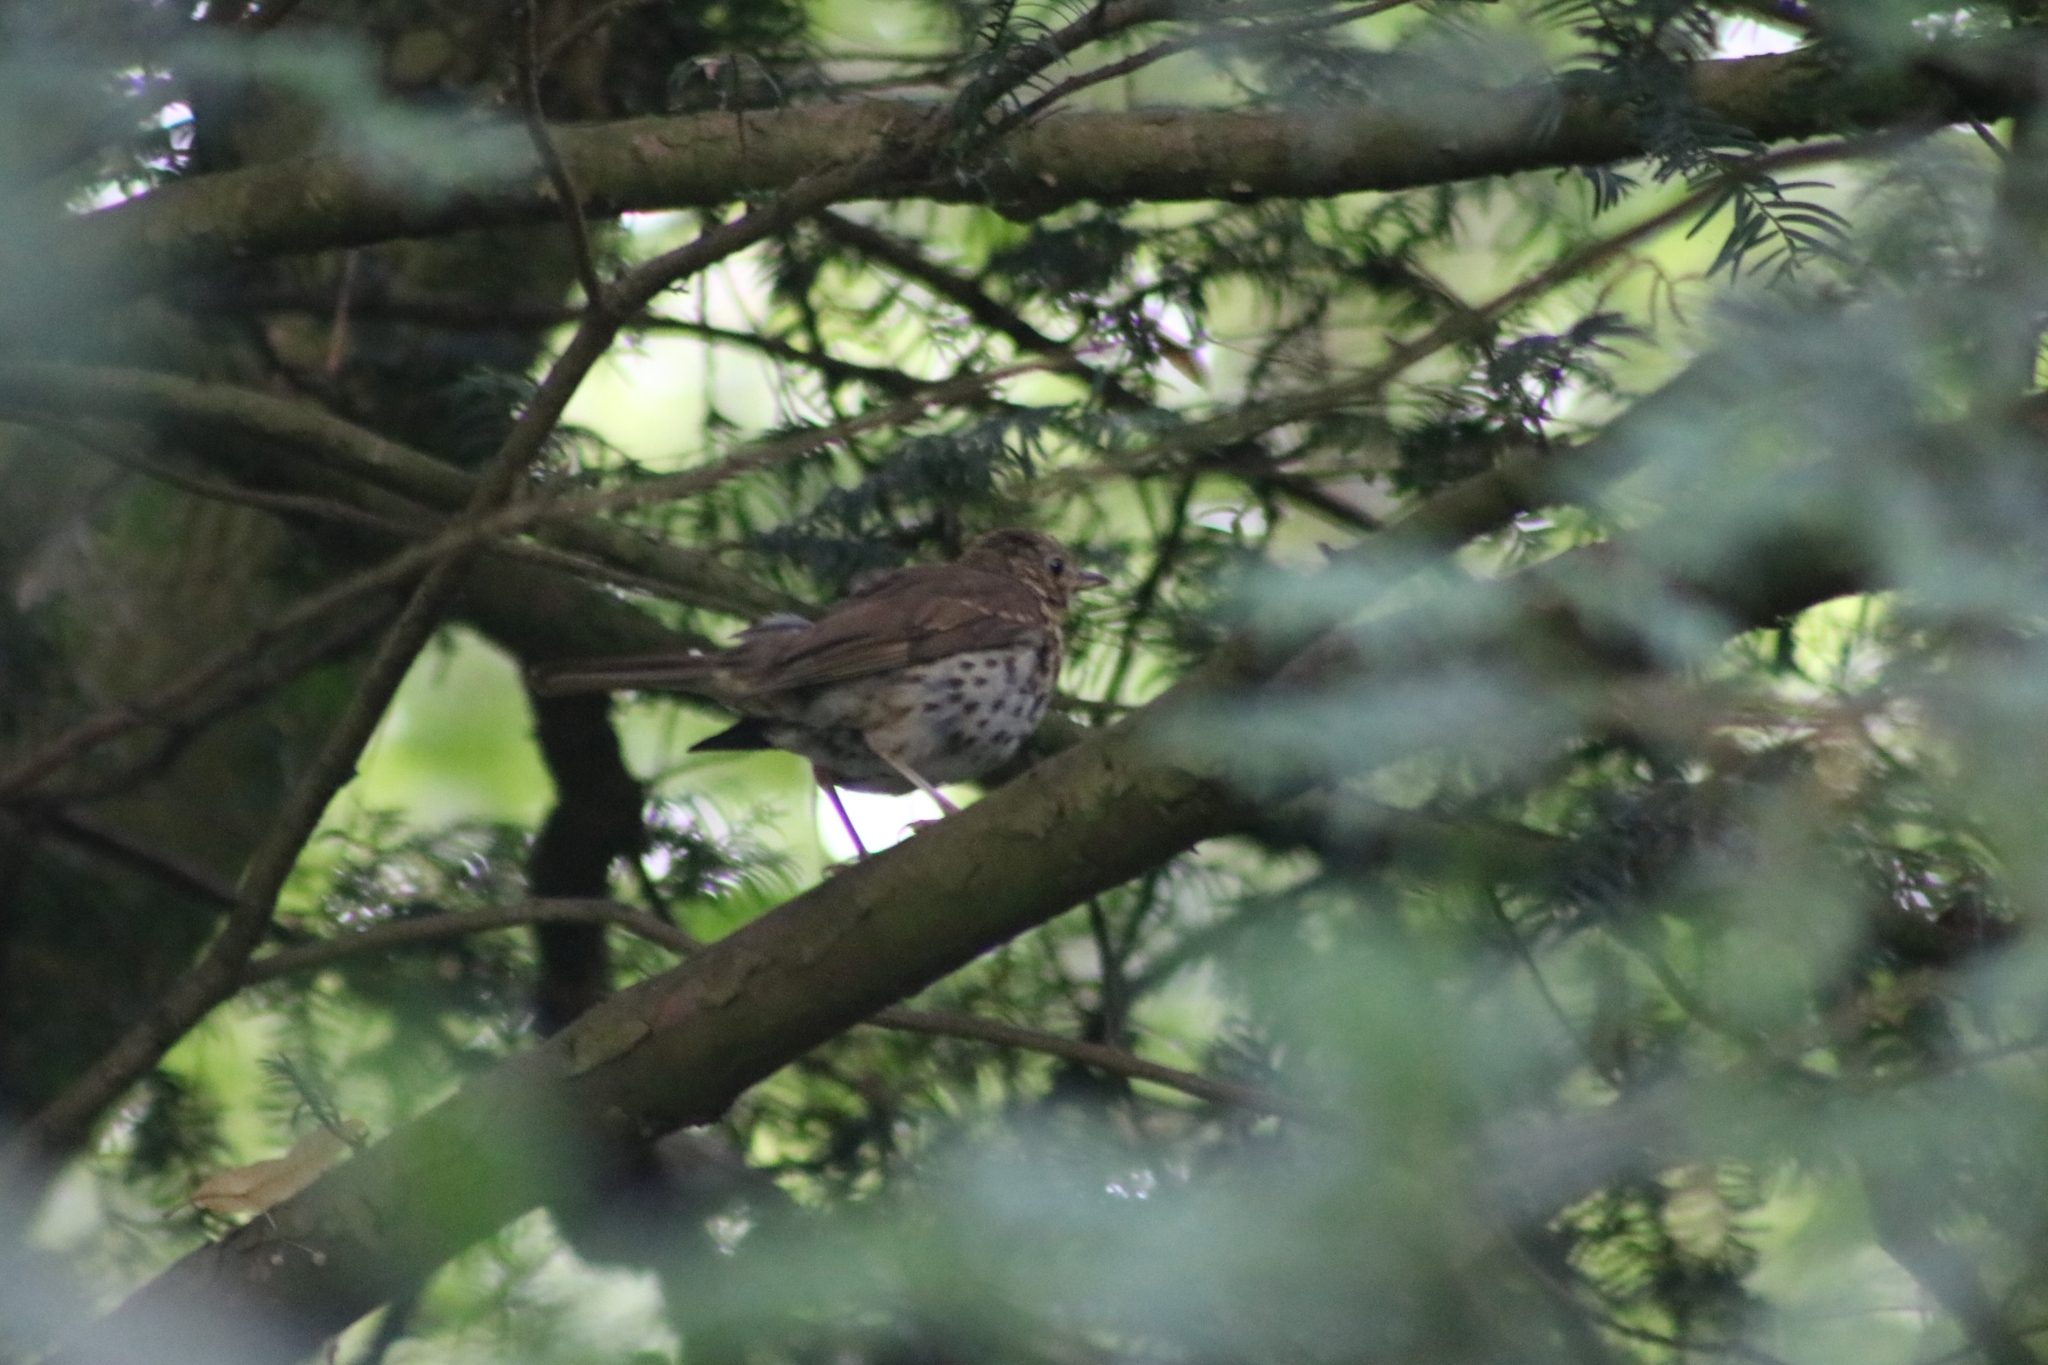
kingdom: Animalia
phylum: Chordata
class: Aves
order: Passeriformes
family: Turdidae
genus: Turdus
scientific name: Turdus philomelos
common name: Song thrush
